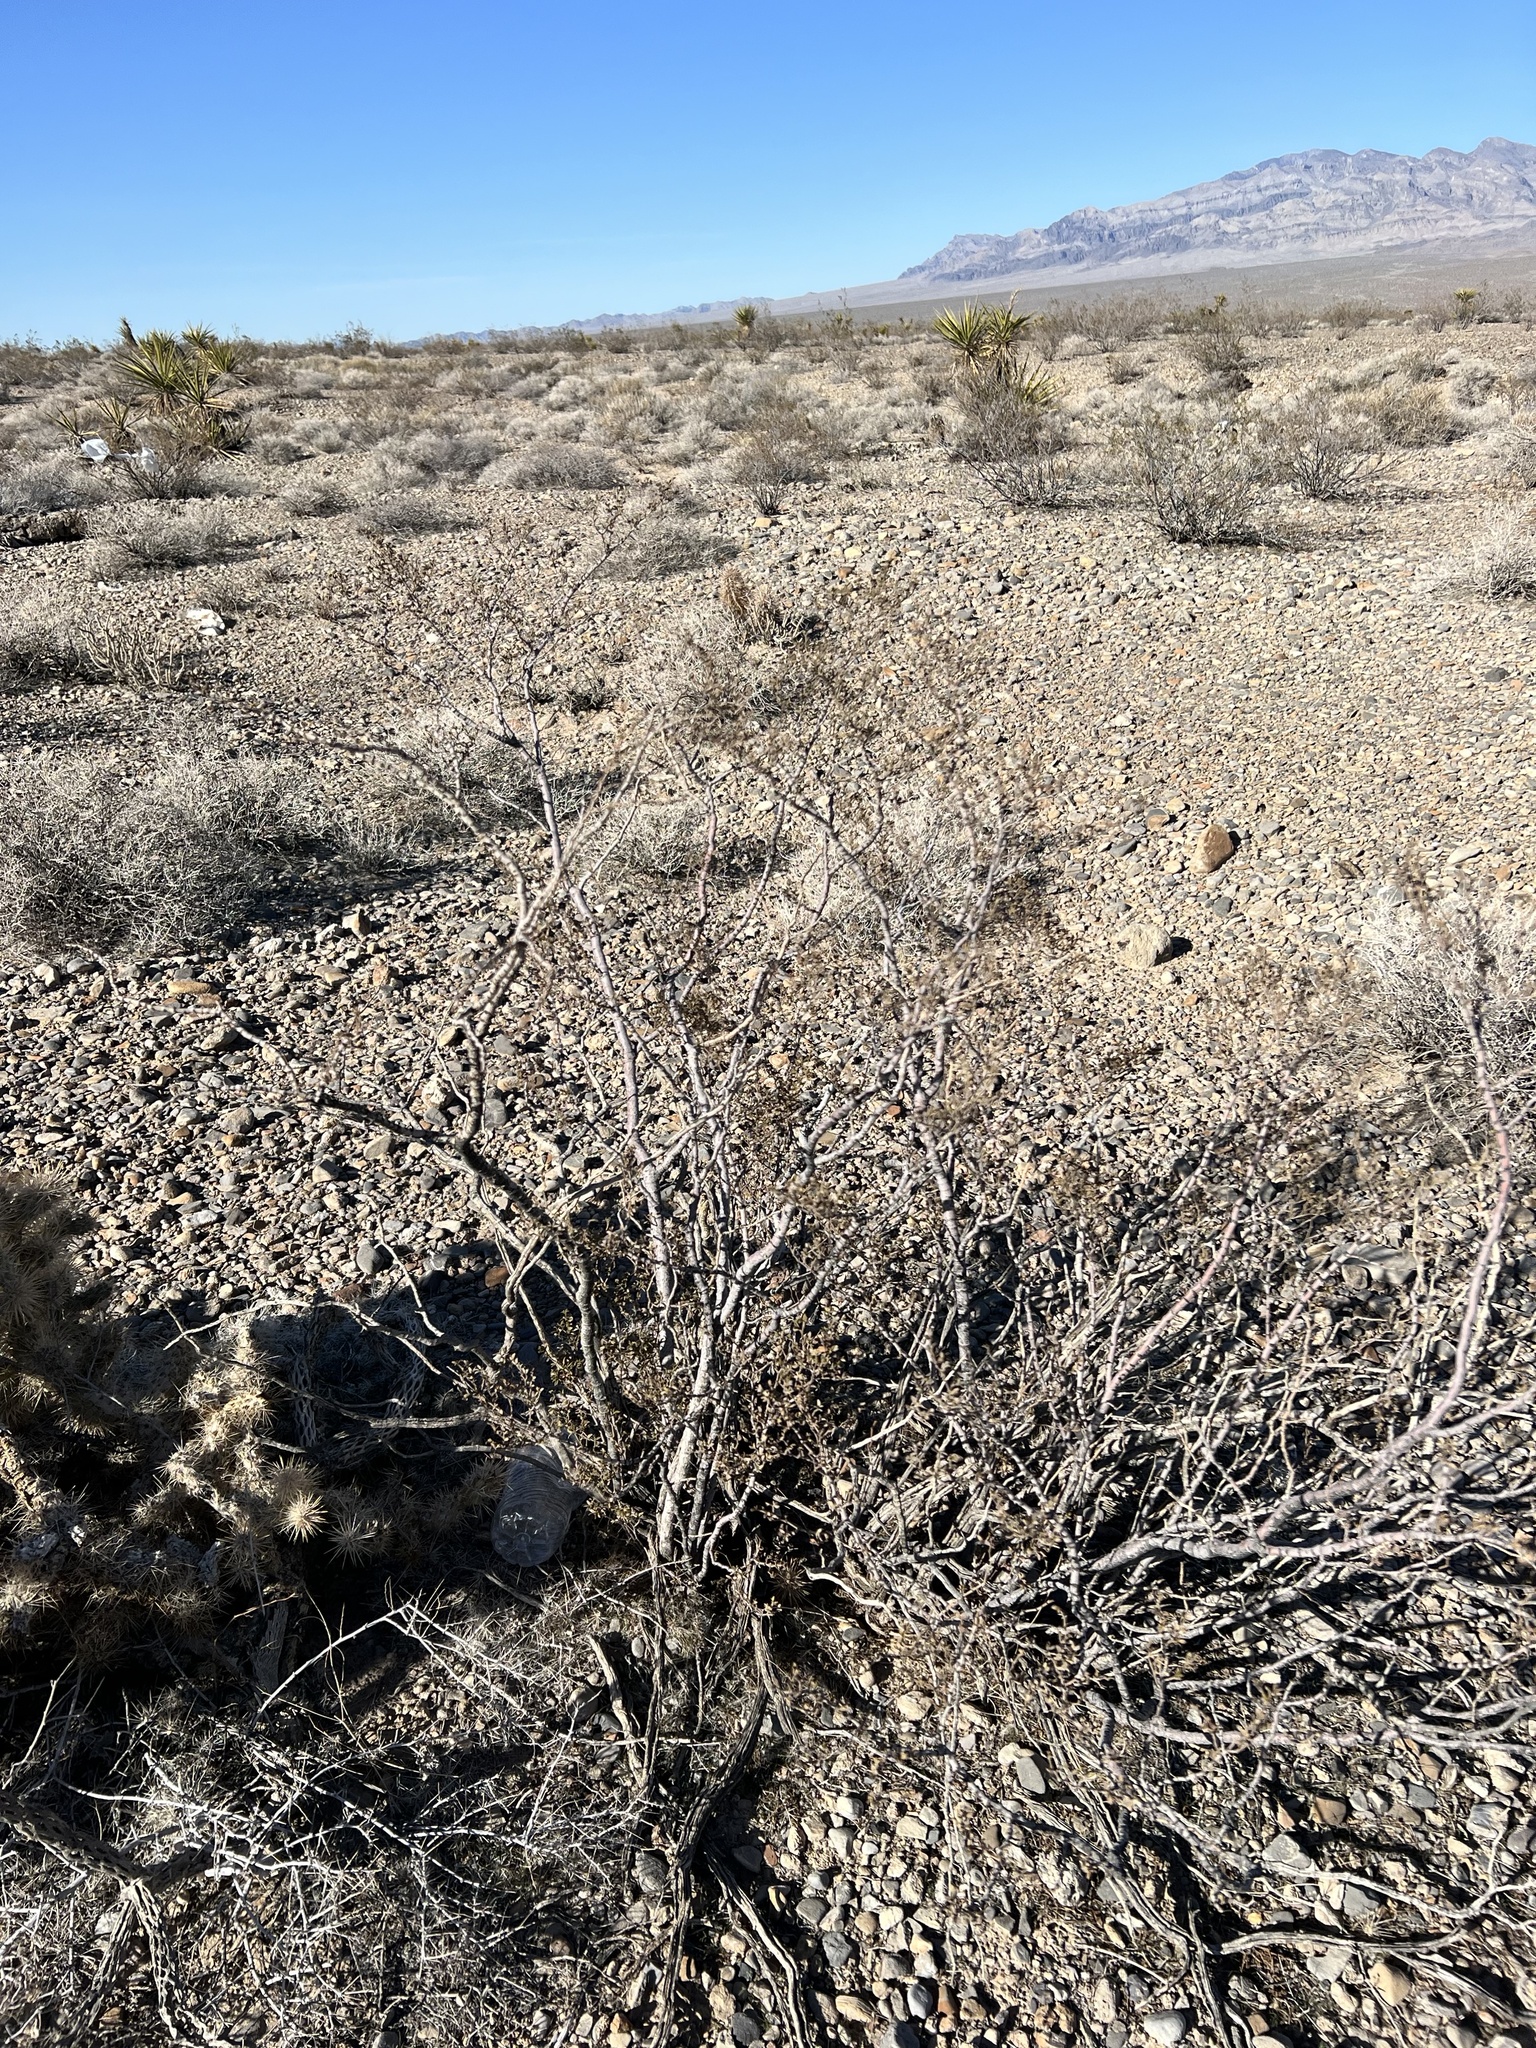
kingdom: Plantae
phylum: Tracheophyta
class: Magnoliopsida
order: Zygophyllales
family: Zygophyllaceae
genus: Larrea
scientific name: Larrea tridentata
